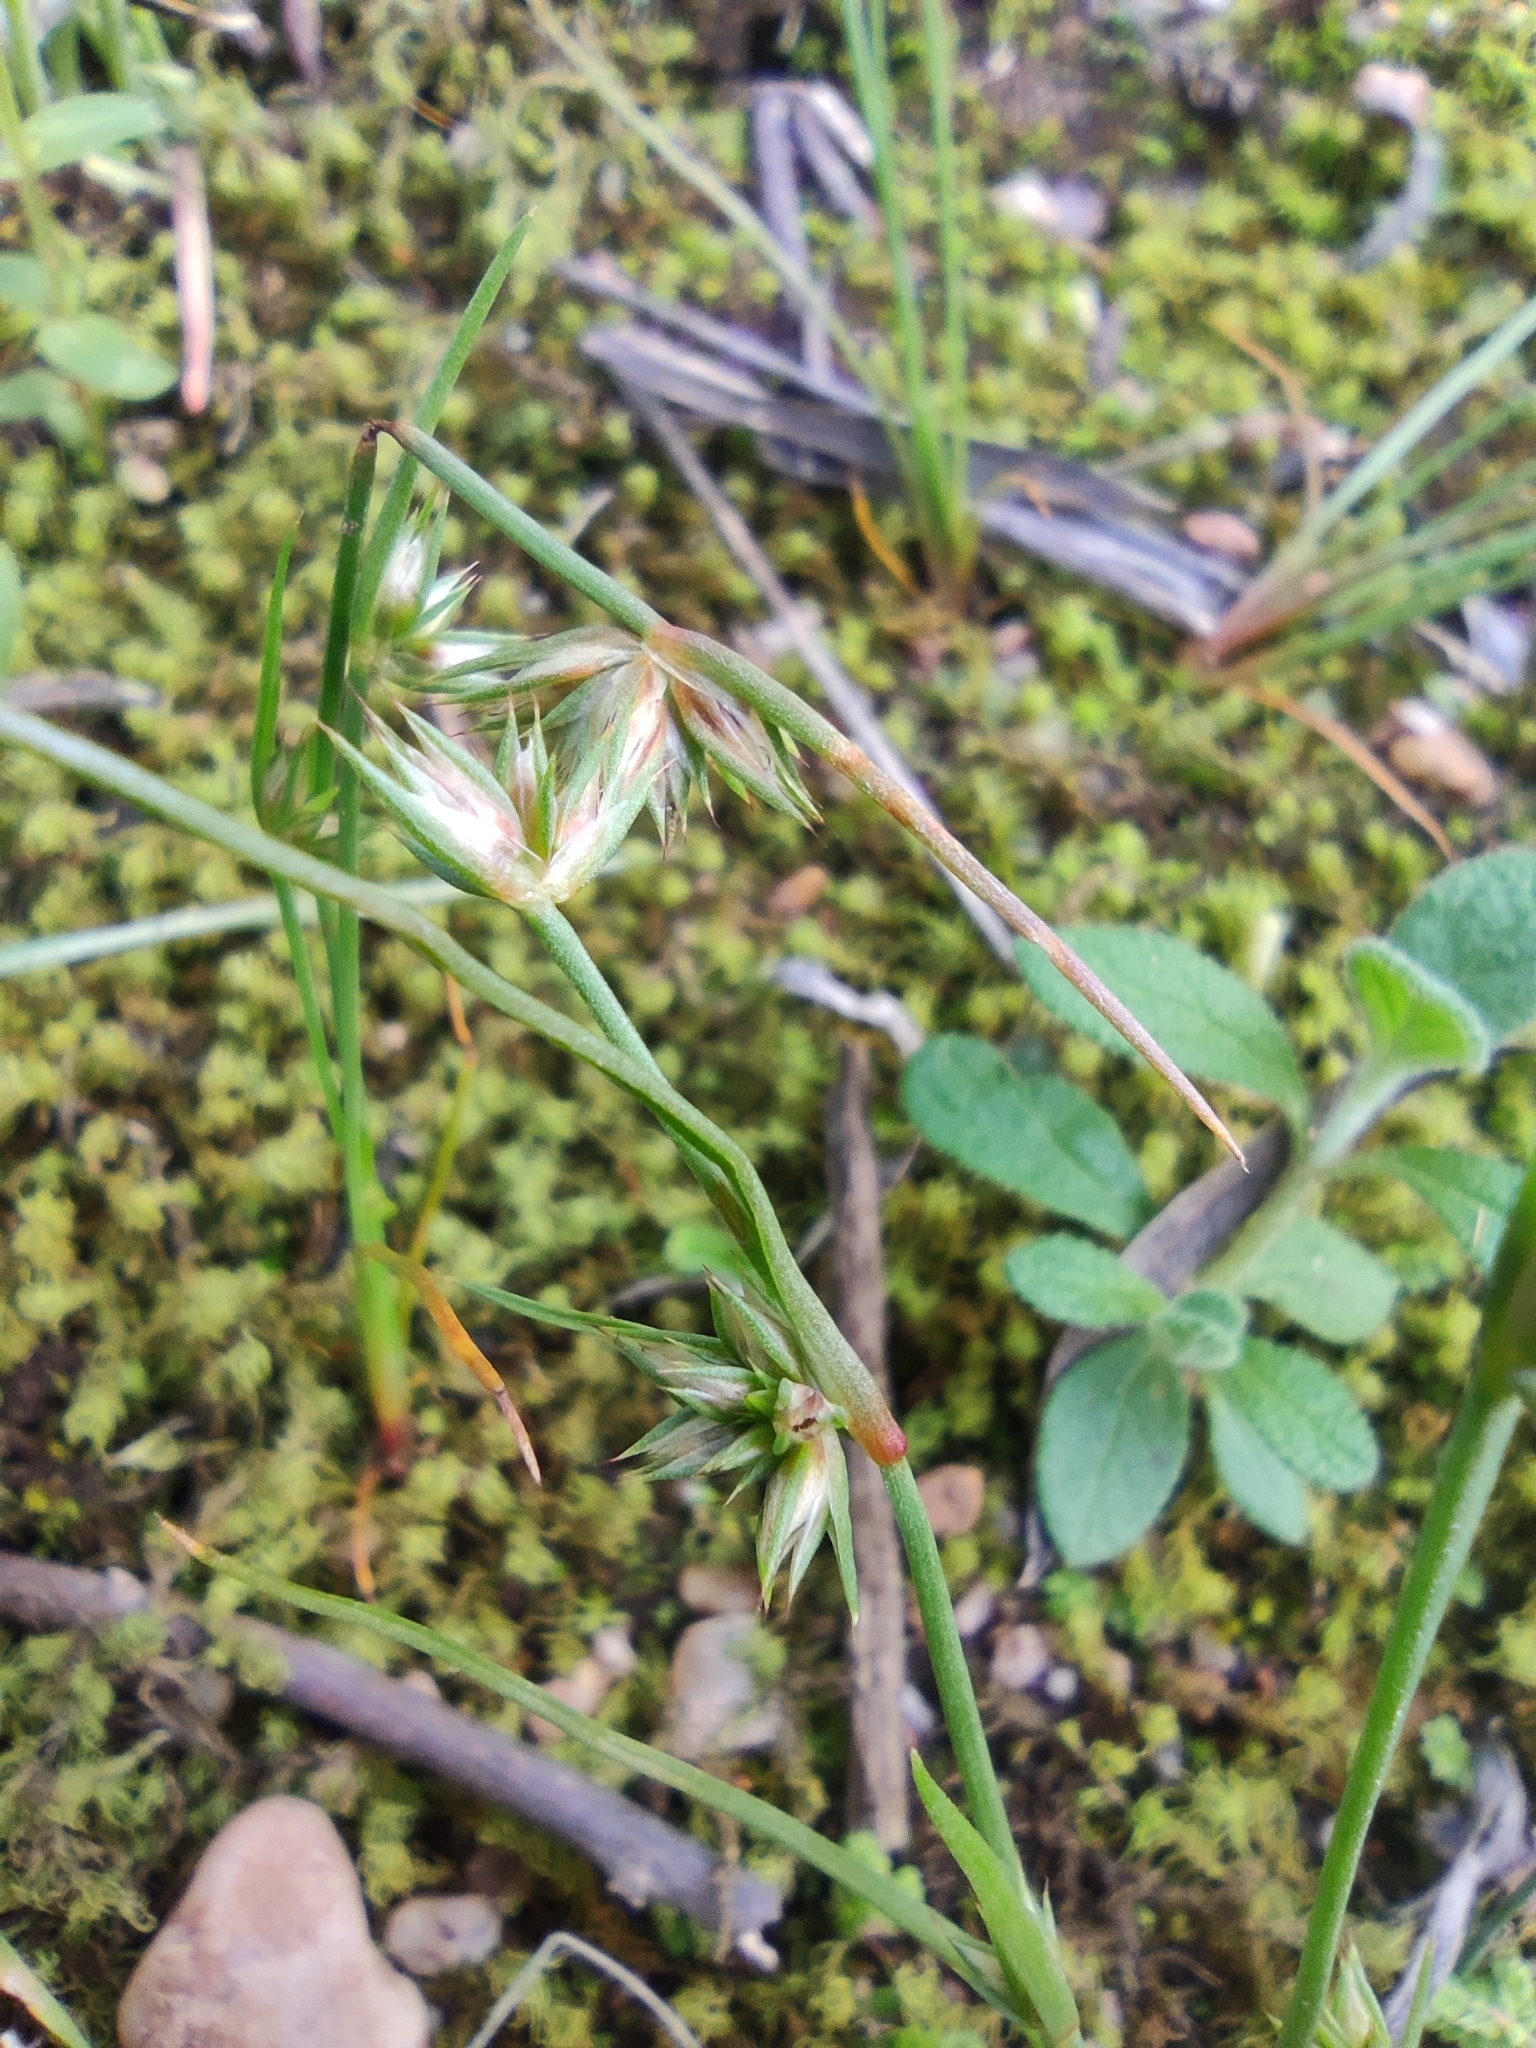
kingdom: Plantae
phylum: Tracheophyta
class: Liliopsida
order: Poales
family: Juncaceae
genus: Juncus
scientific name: Juncus capitatus
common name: Dwarf rush
